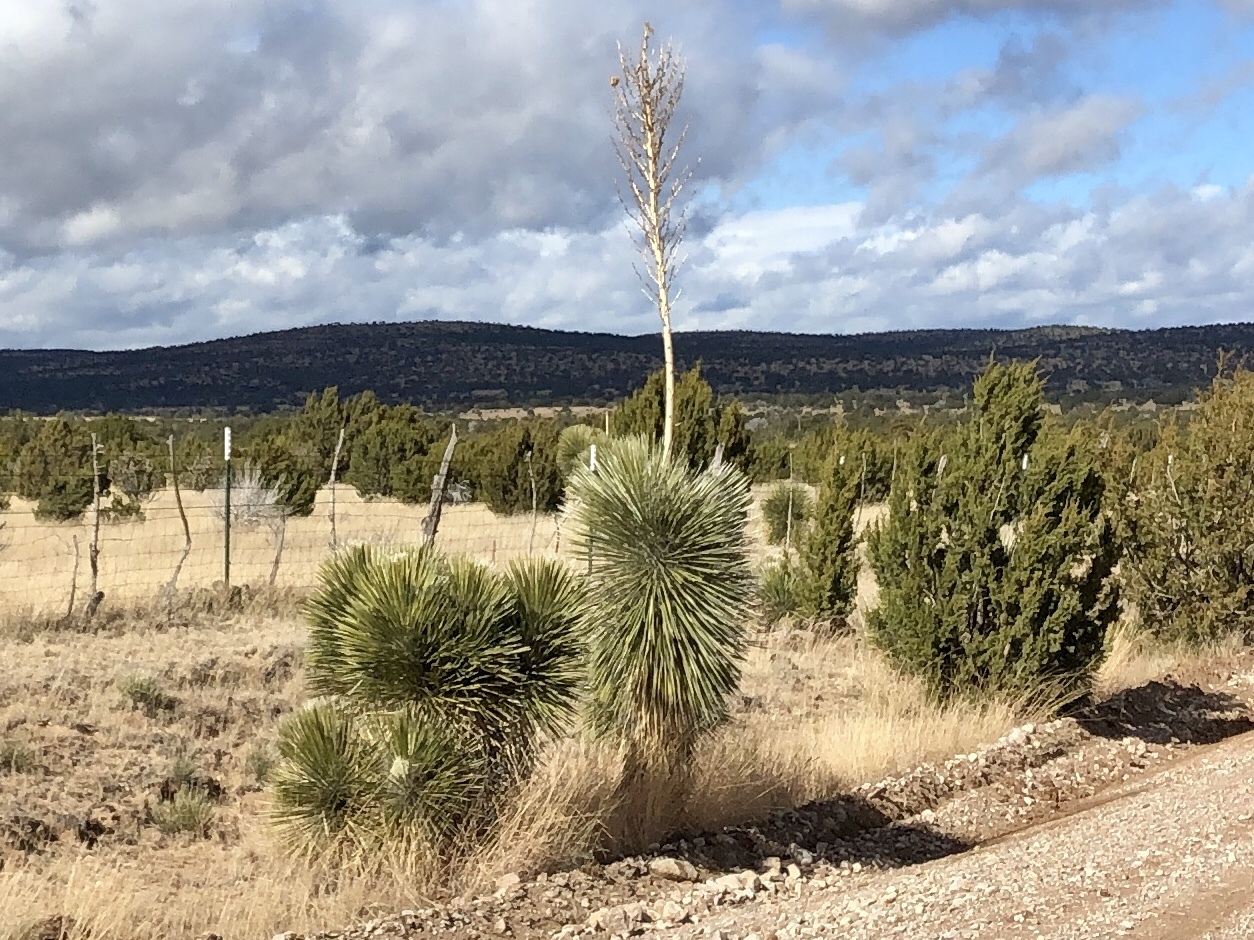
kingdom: Plantae
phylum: Tracheophyta
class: Liliopsida
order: Asparagales
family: Asparagaceae
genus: Yucca
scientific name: Yucca elata
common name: Palmella
